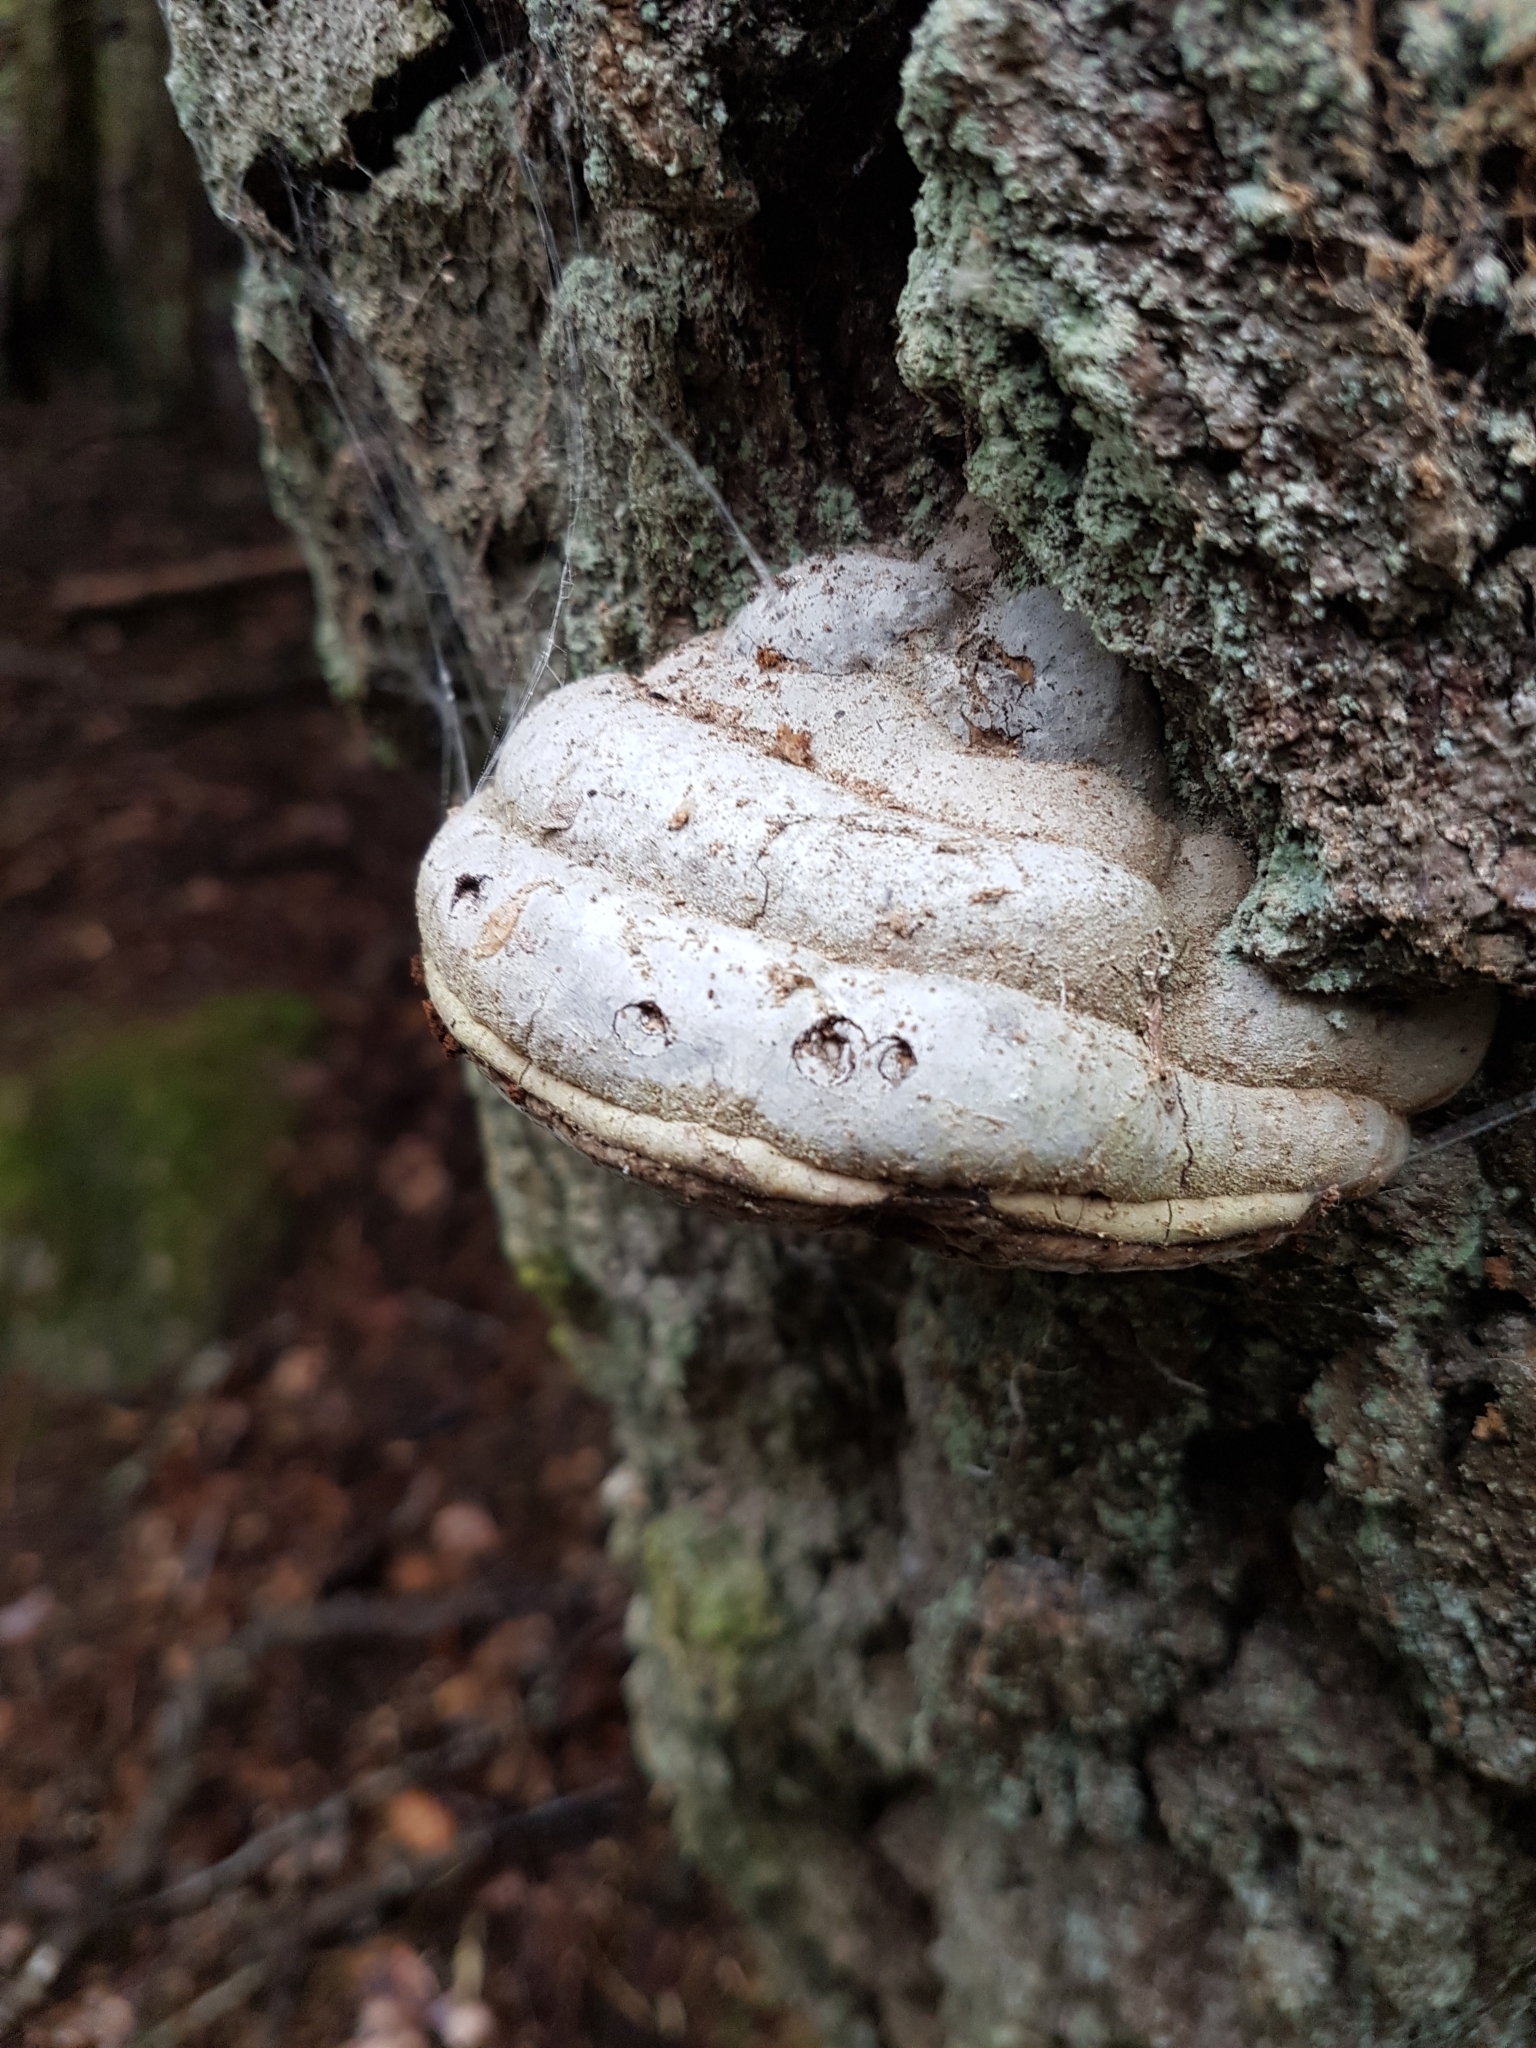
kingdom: Fungi
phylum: Basidiomycota
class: Agaricomycetes
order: Polyporales
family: Polyporaceae
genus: Fomes
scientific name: Fomes fomentarius
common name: Hoof fungus
